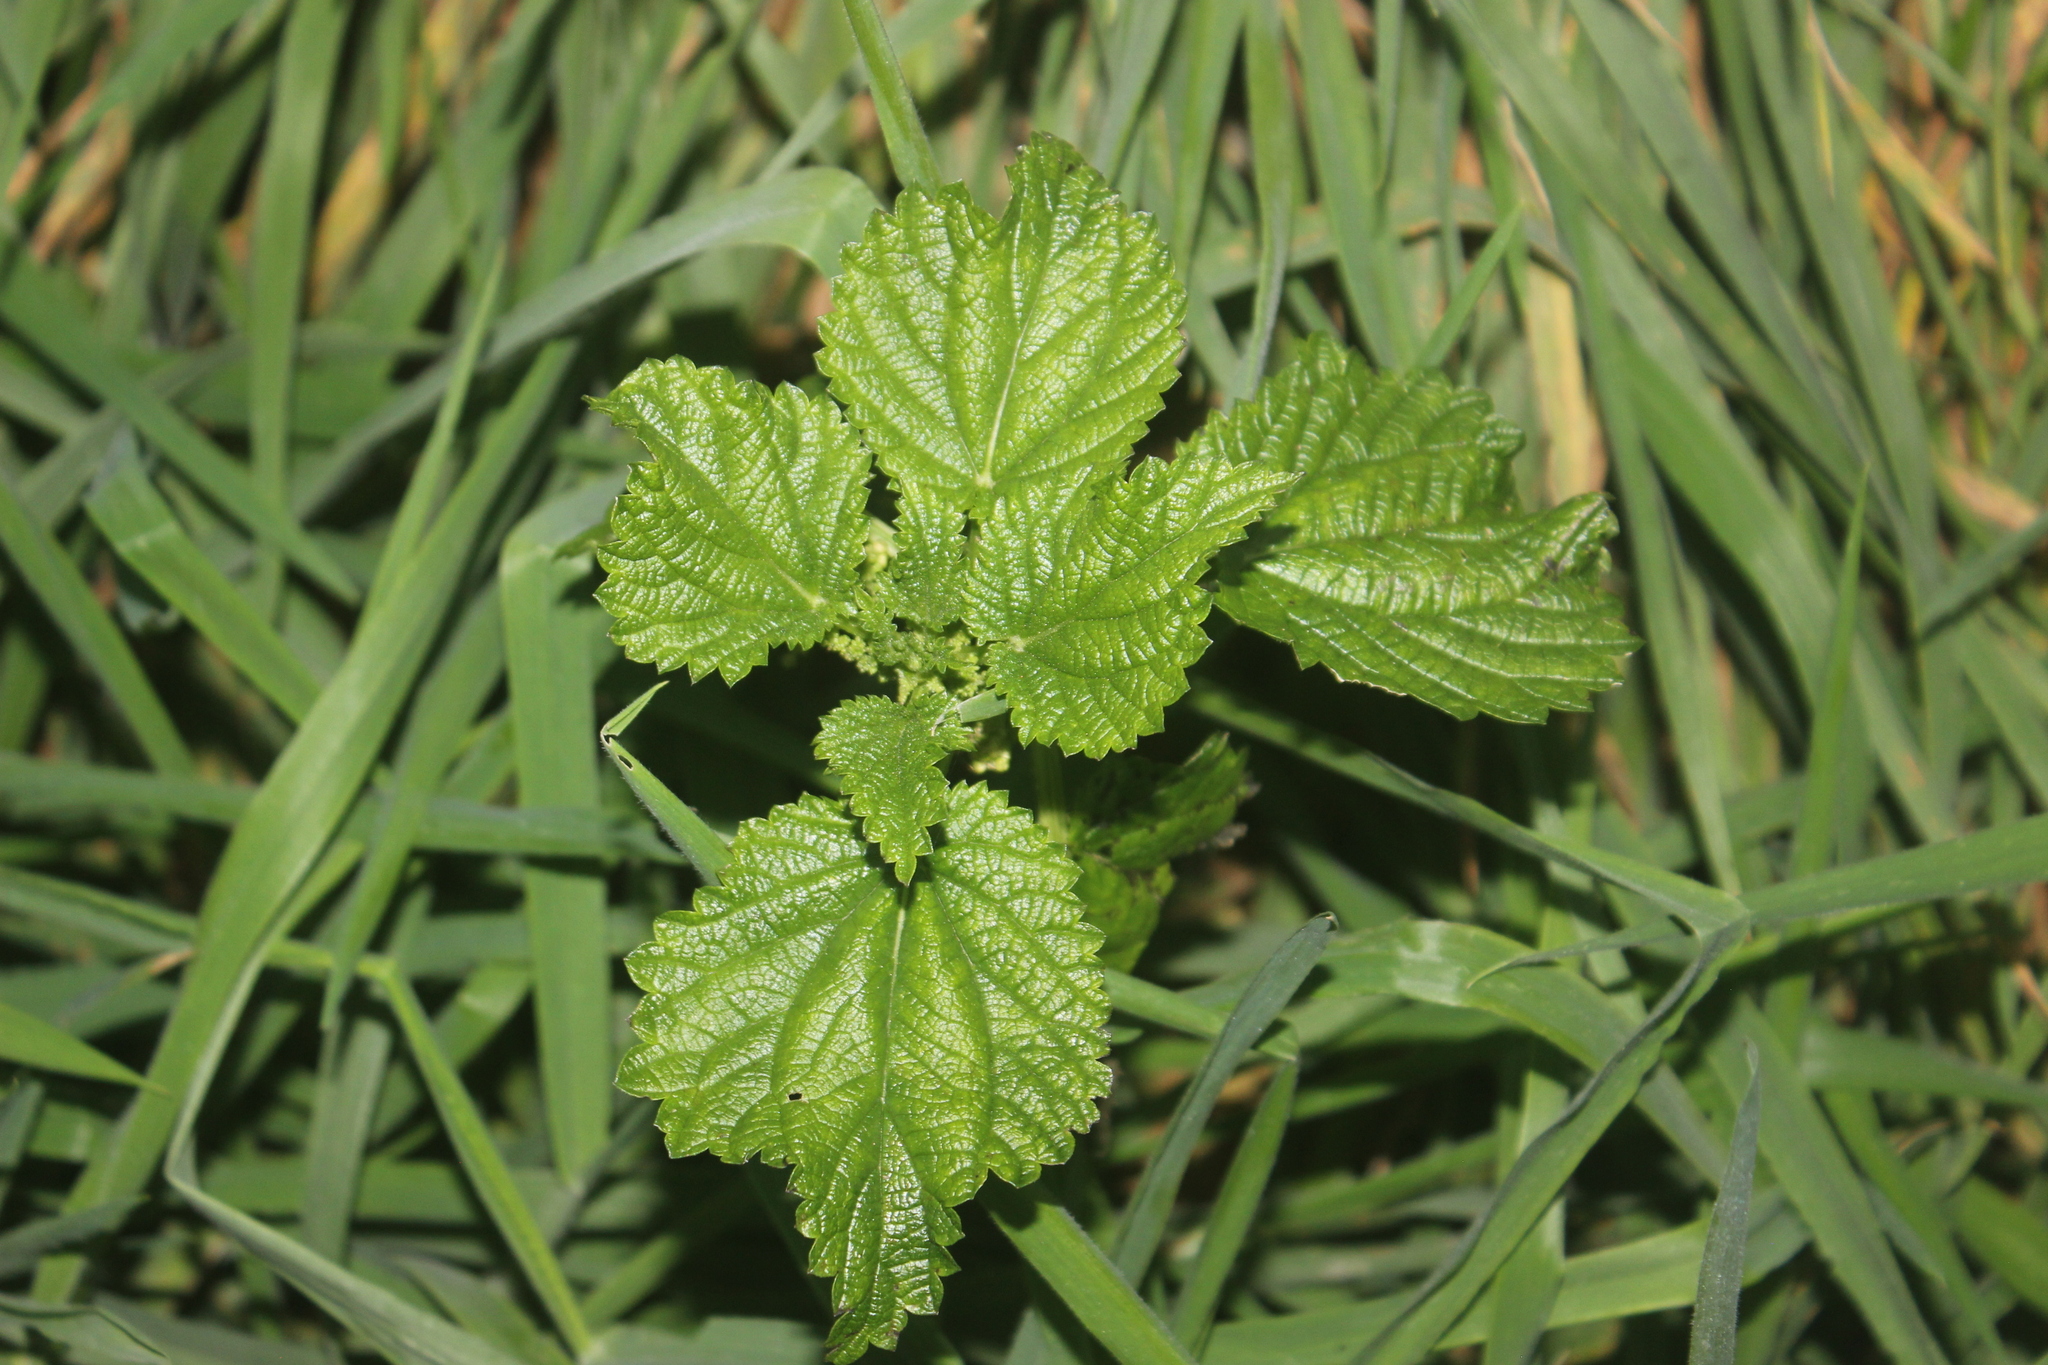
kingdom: Plantae
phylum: Tracheophyta
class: Magnoliopsida
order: Rosales
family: Urticaceae
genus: Urtica
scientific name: Urtica australis
